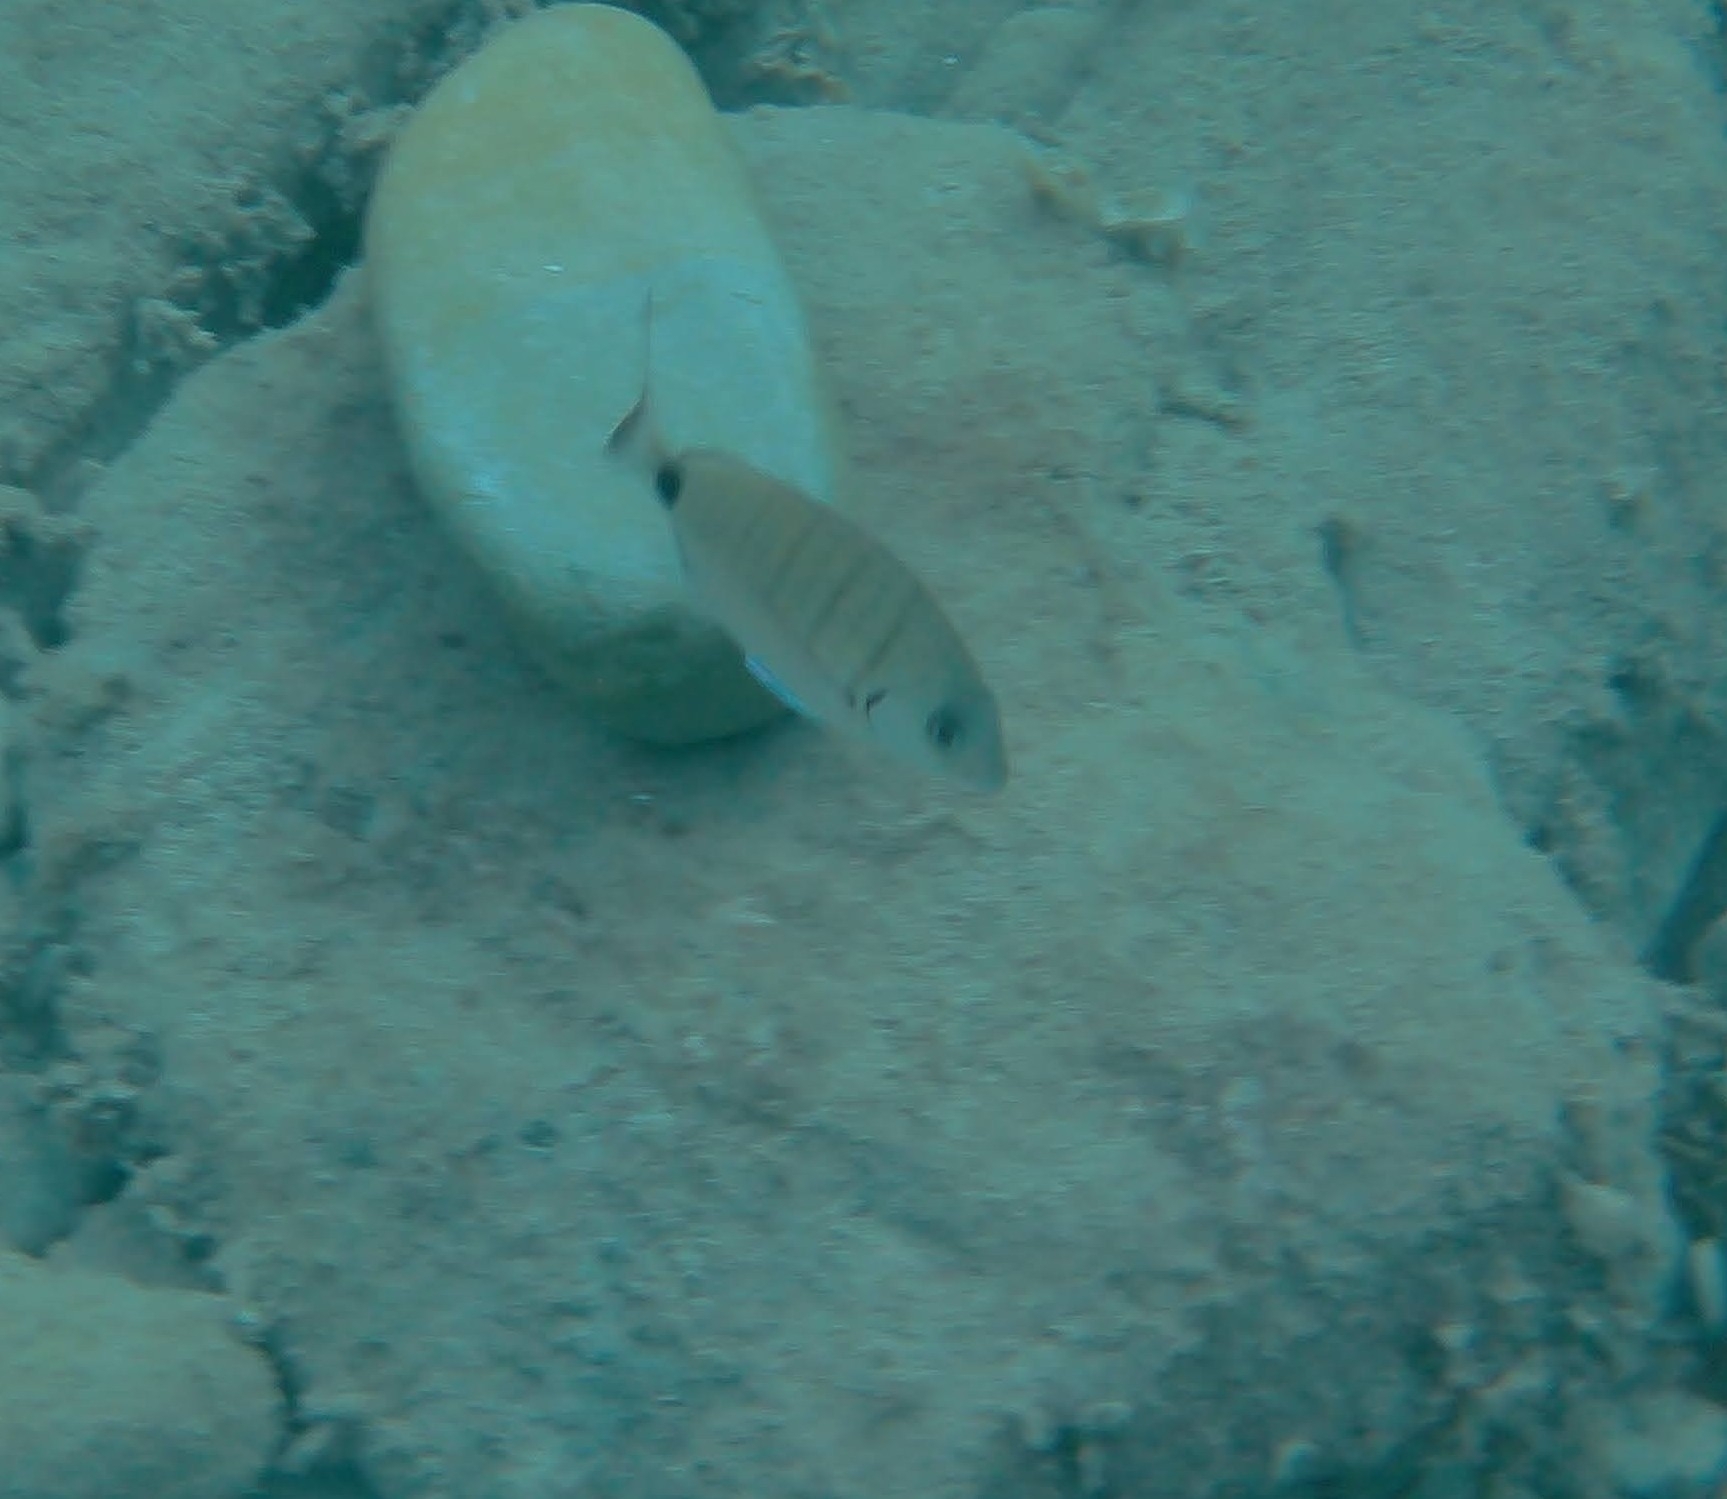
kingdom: Animalia
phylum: Chordata
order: Perciformes
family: Sparidae
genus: Diplodus
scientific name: Diplodus sargus
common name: White seabream
